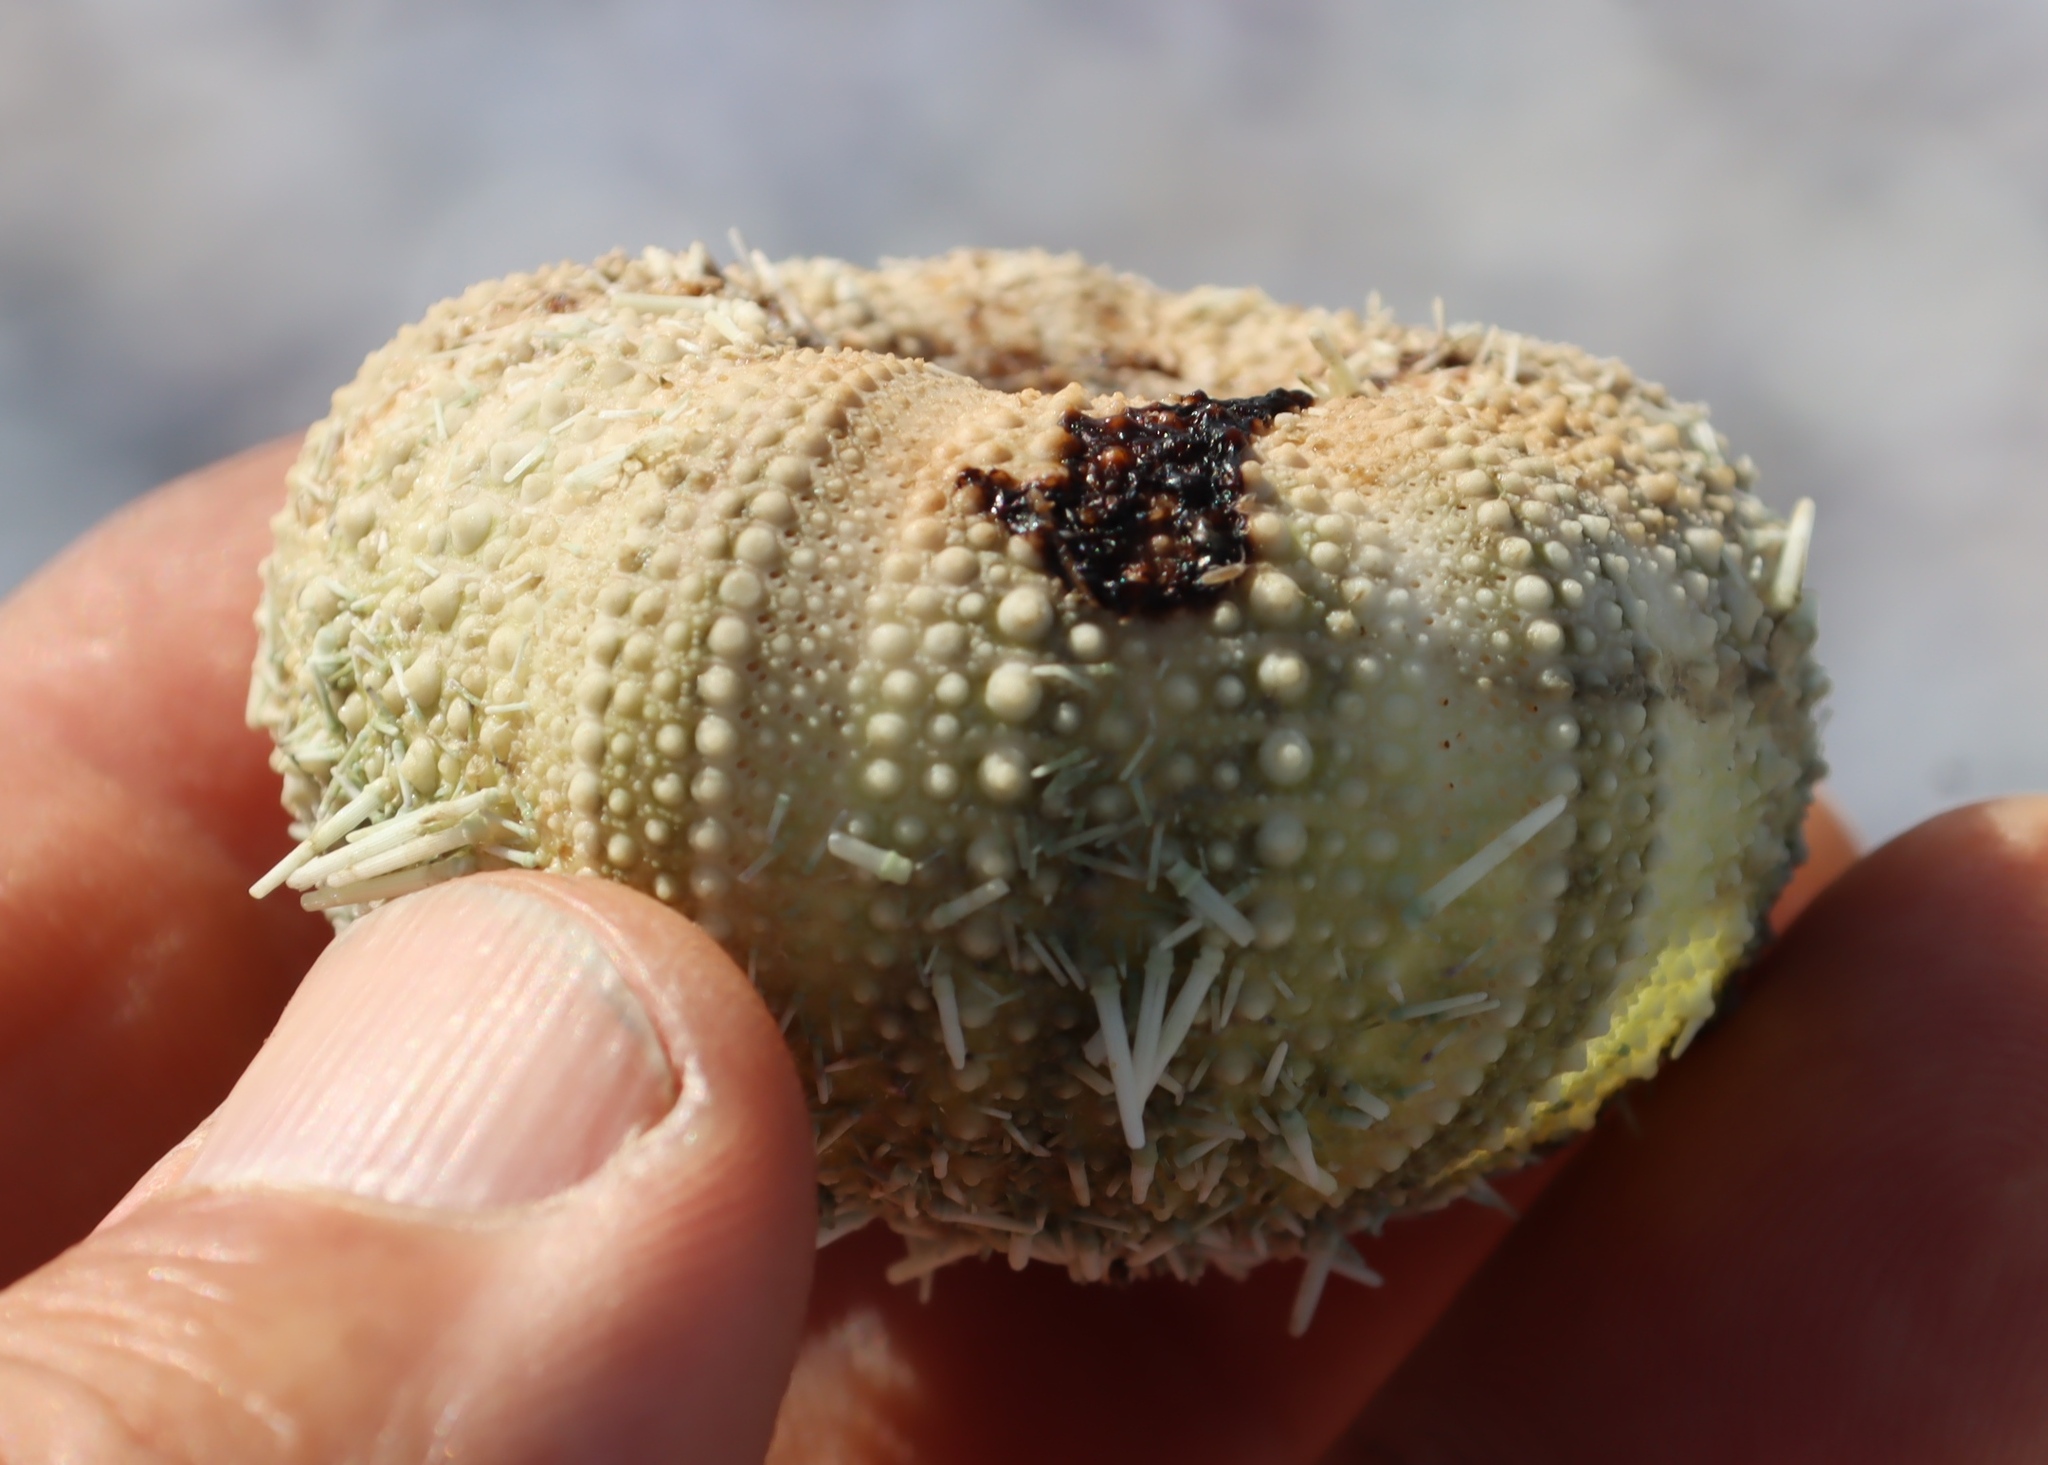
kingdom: Animalia
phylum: Echinodermata
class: Echinoidea
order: Camarodonta
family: Parechinidae
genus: Parechinus
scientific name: Parechinus angulosus
